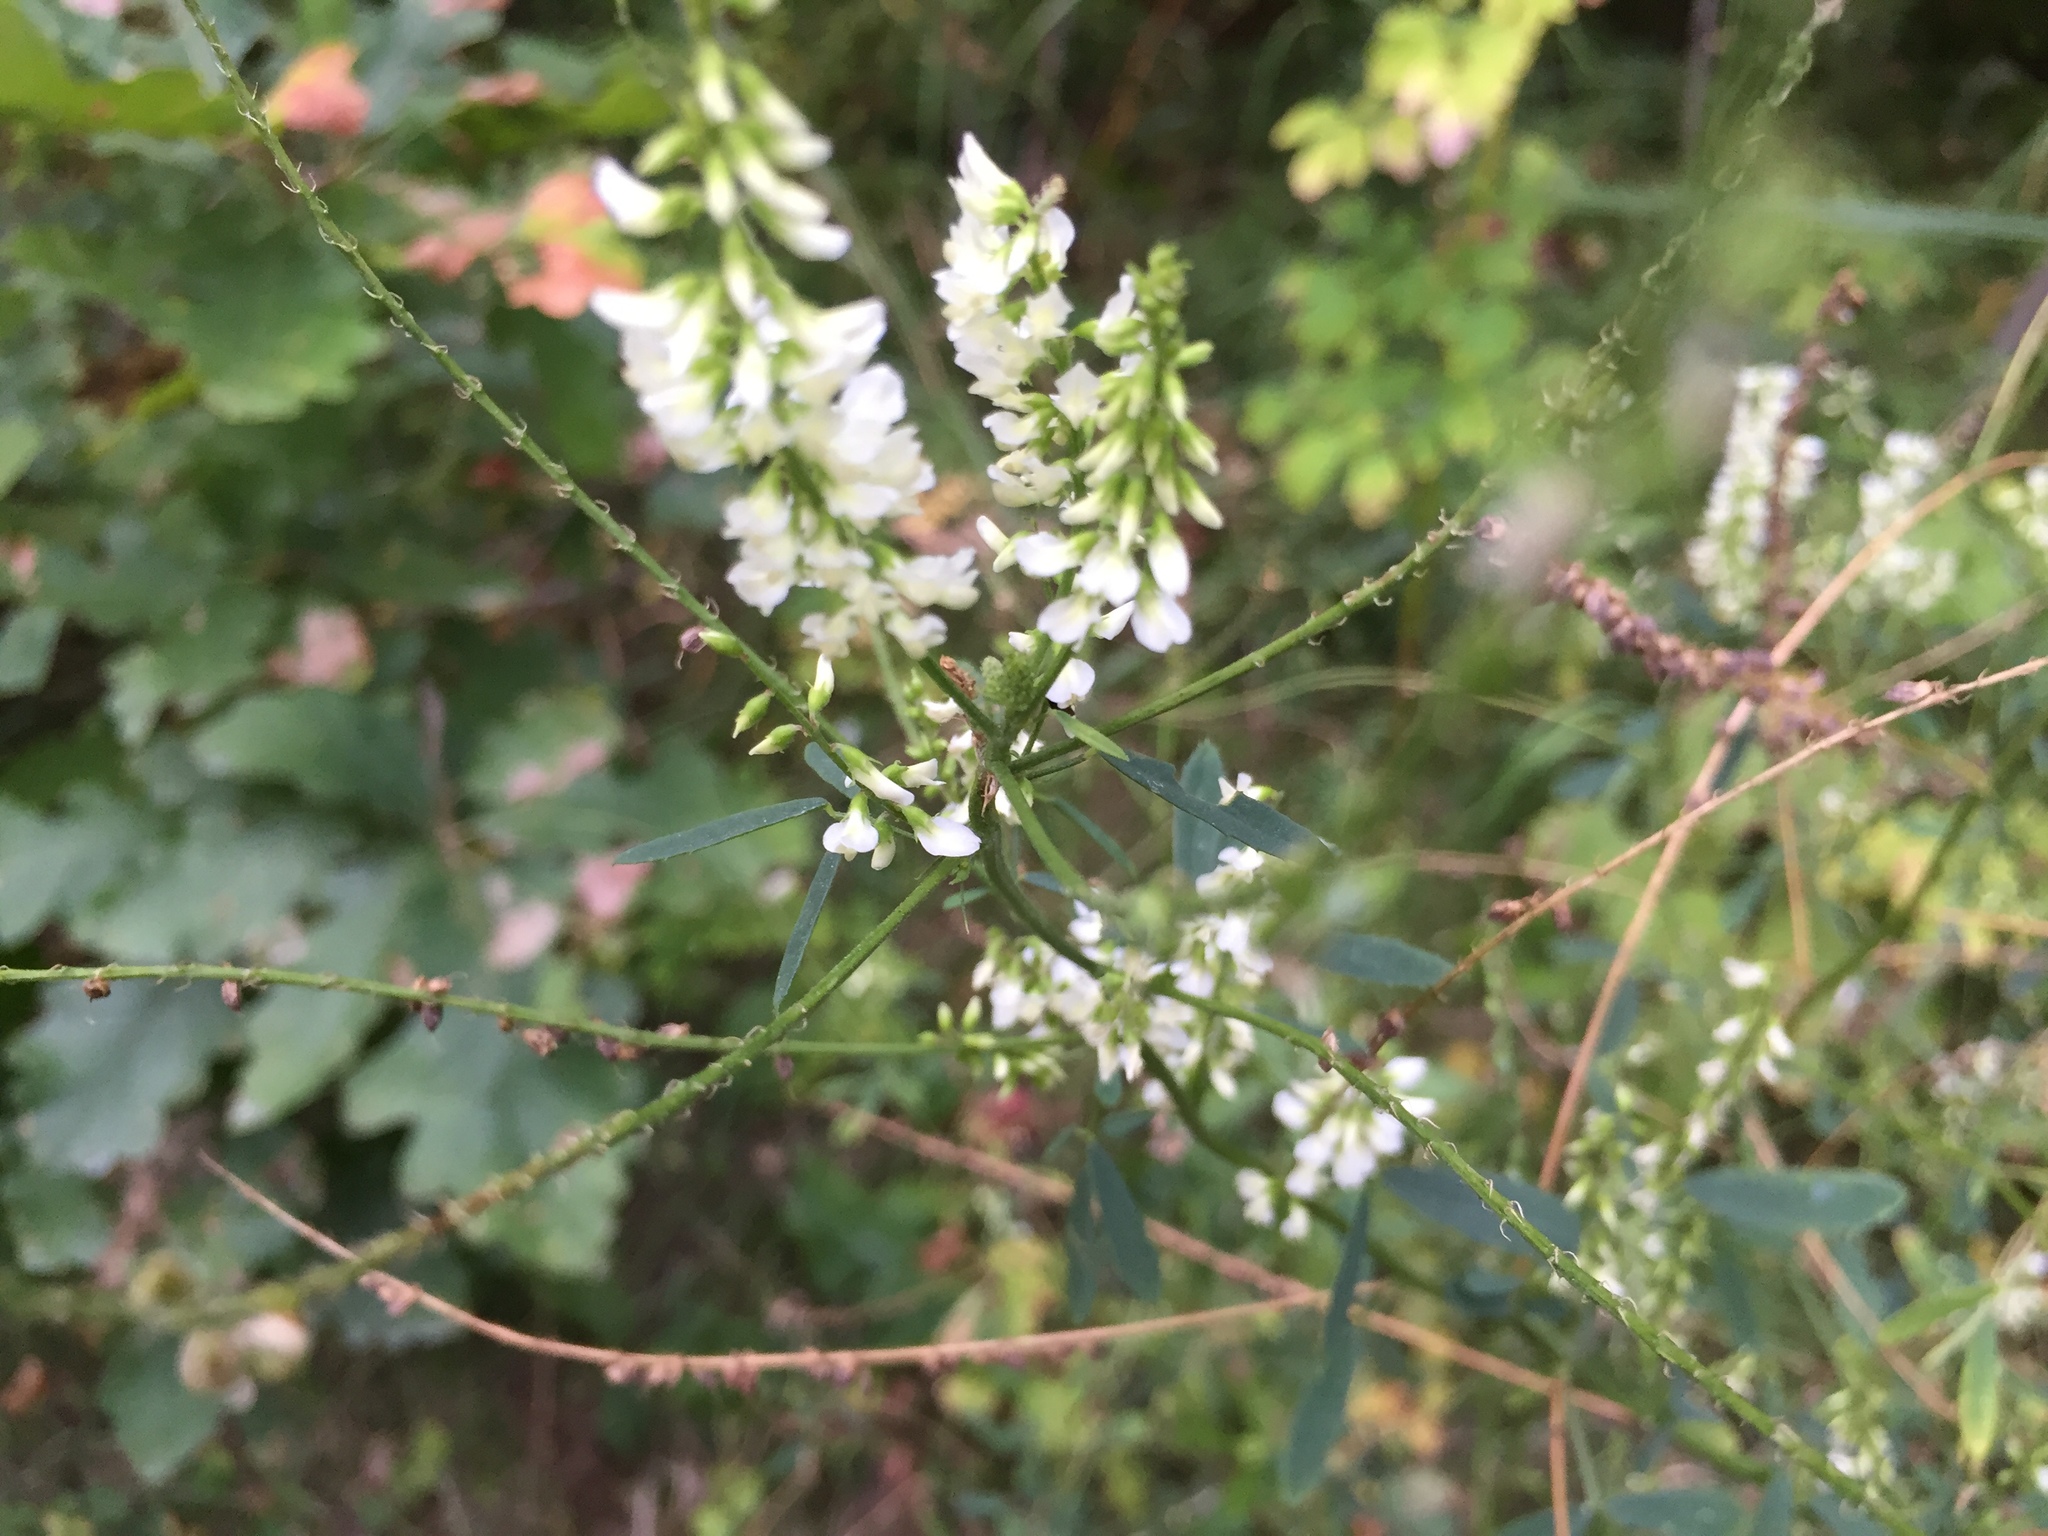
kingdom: Plantae
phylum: Tracheophyta
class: Magnoliopsida
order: Fabales
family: Fabaceae
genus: Melilotus
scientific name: Melilotus albus
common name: White melilot
